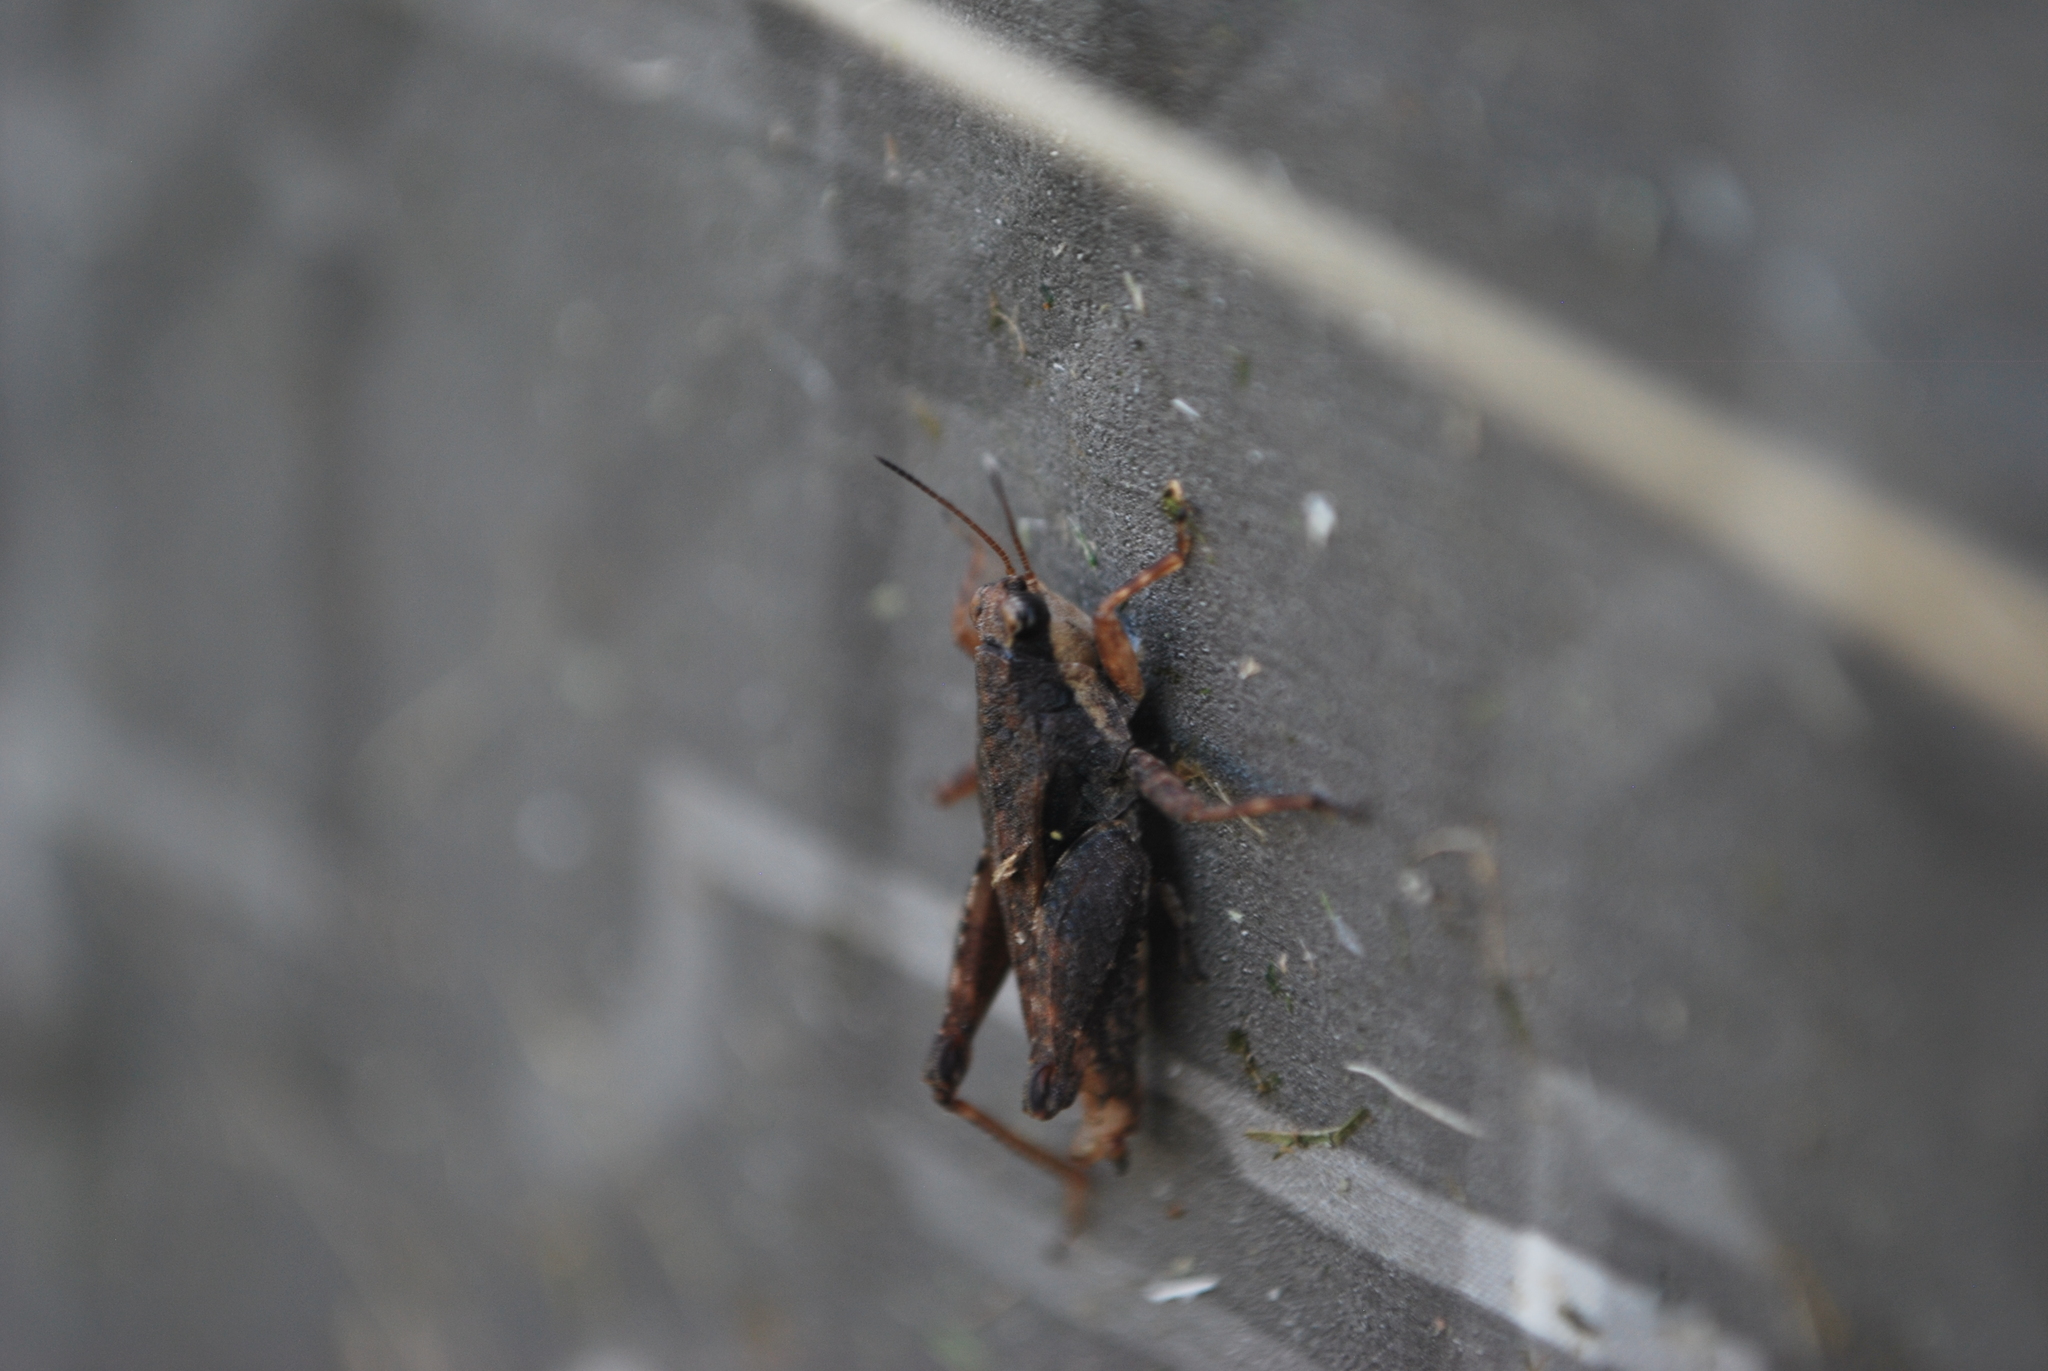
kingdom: Animalia
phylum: Arthropoda
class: Insecta
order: Orthoptera
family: Tetrigidae
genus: Tettigidea
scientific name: Tettigidea laterale
